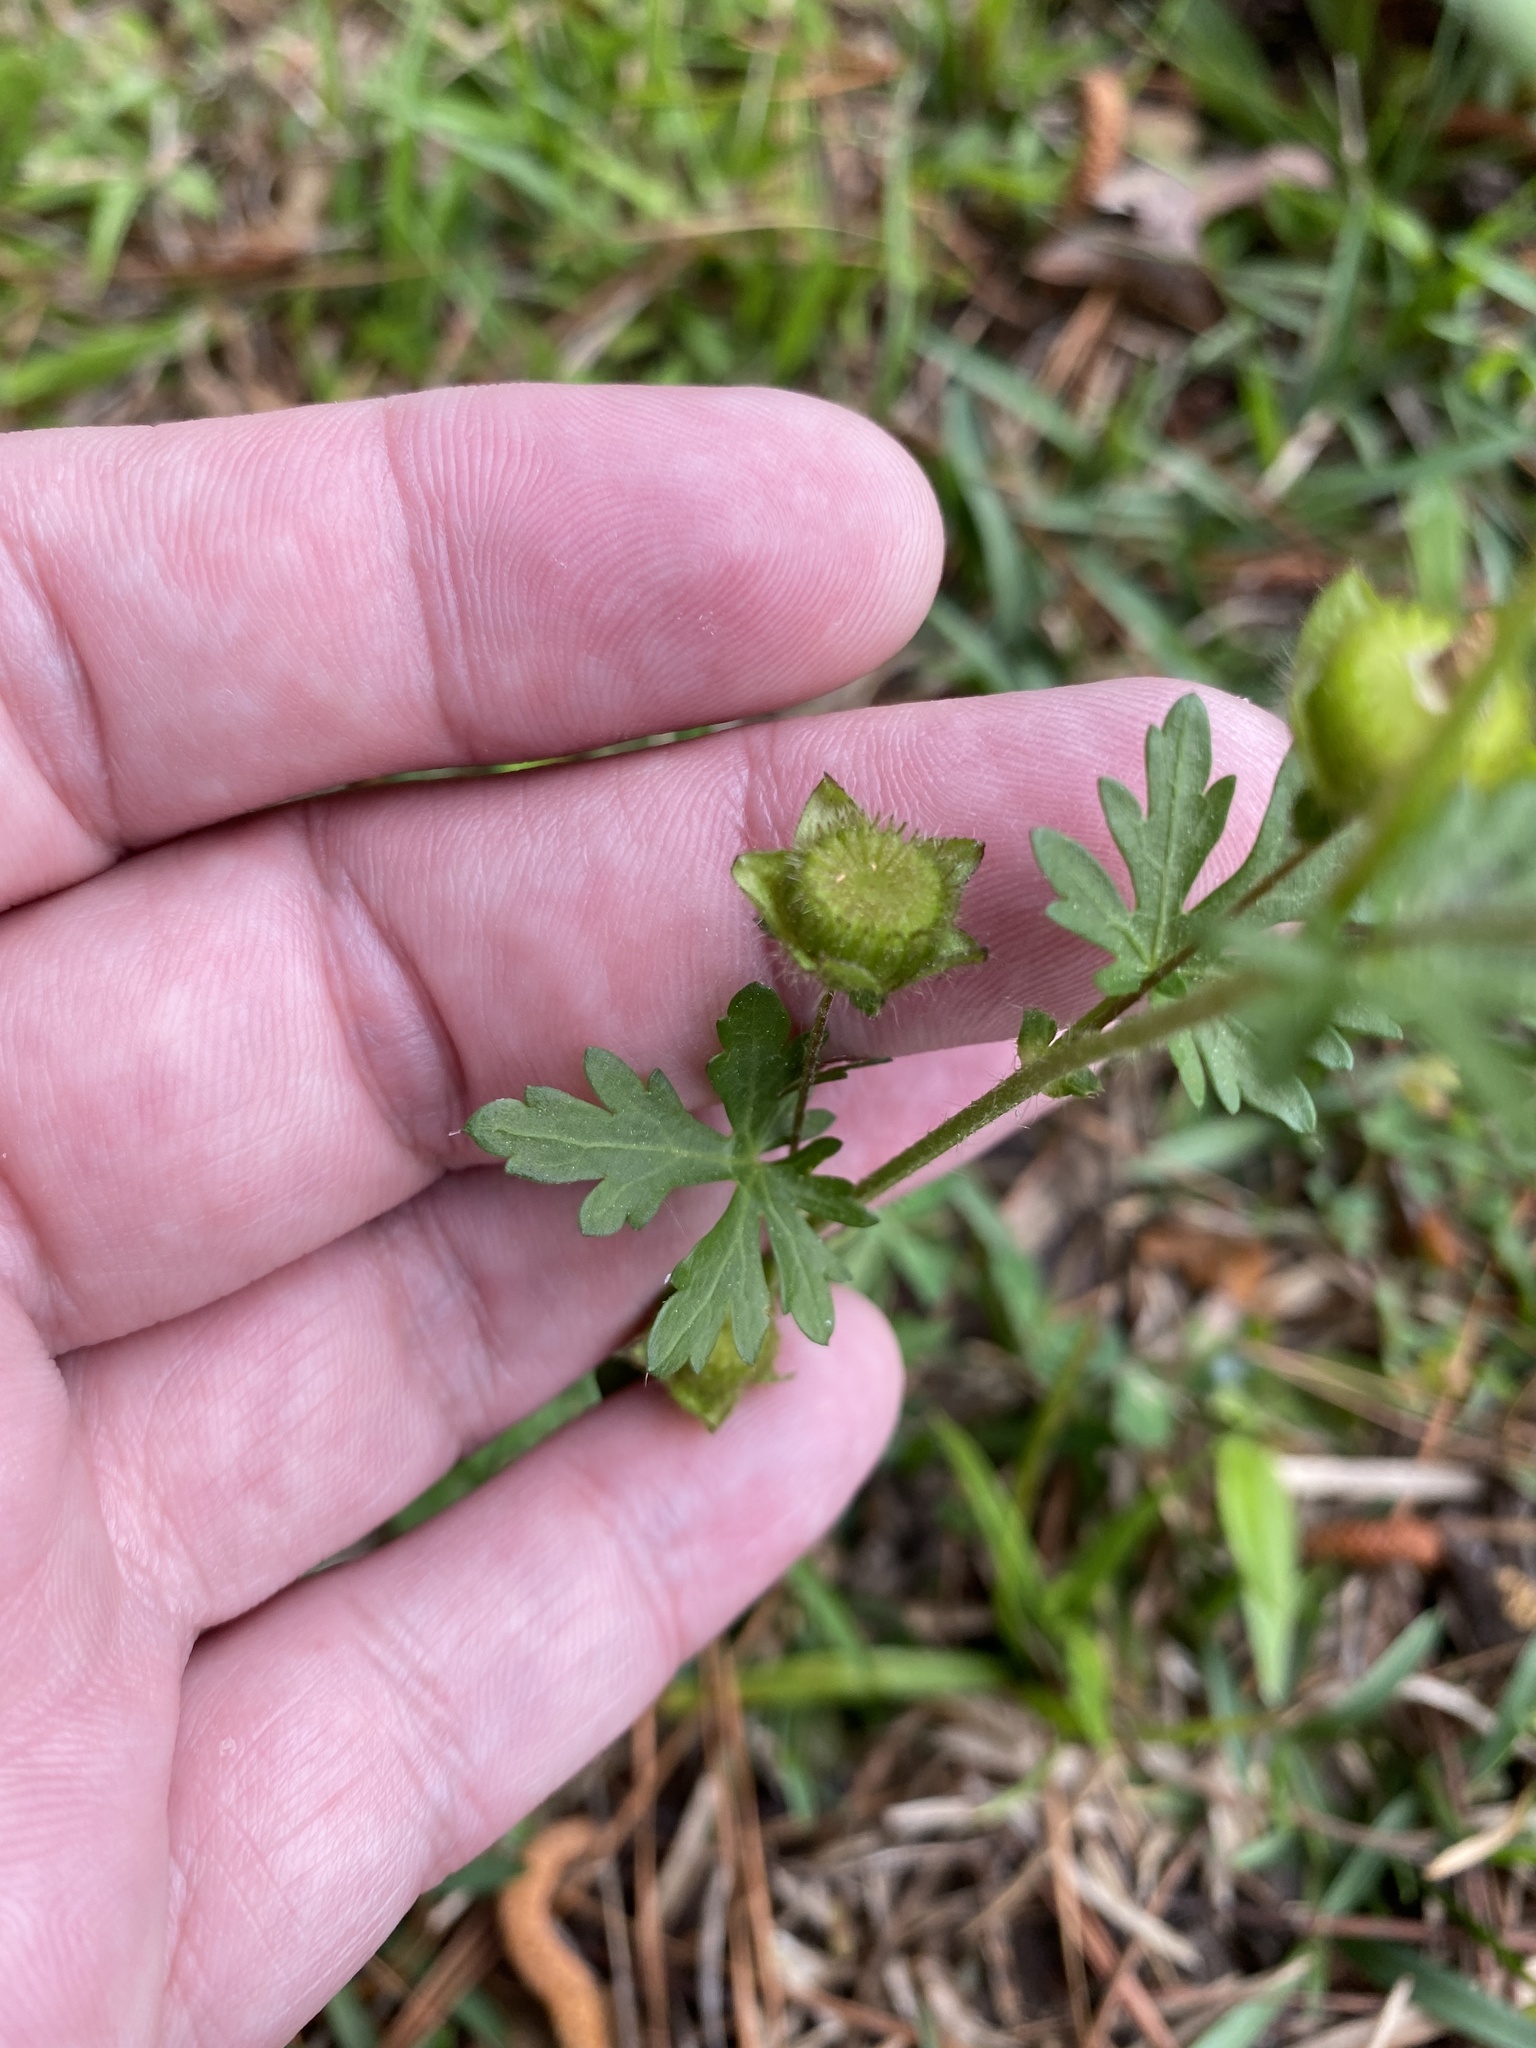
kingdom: Plantae
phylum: Tracheophyta
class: Magnoliopsida
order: Malvales
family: Malvaceae
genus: Modiola
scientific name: Modiola caroliniana
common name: Carolina bristlemallow
